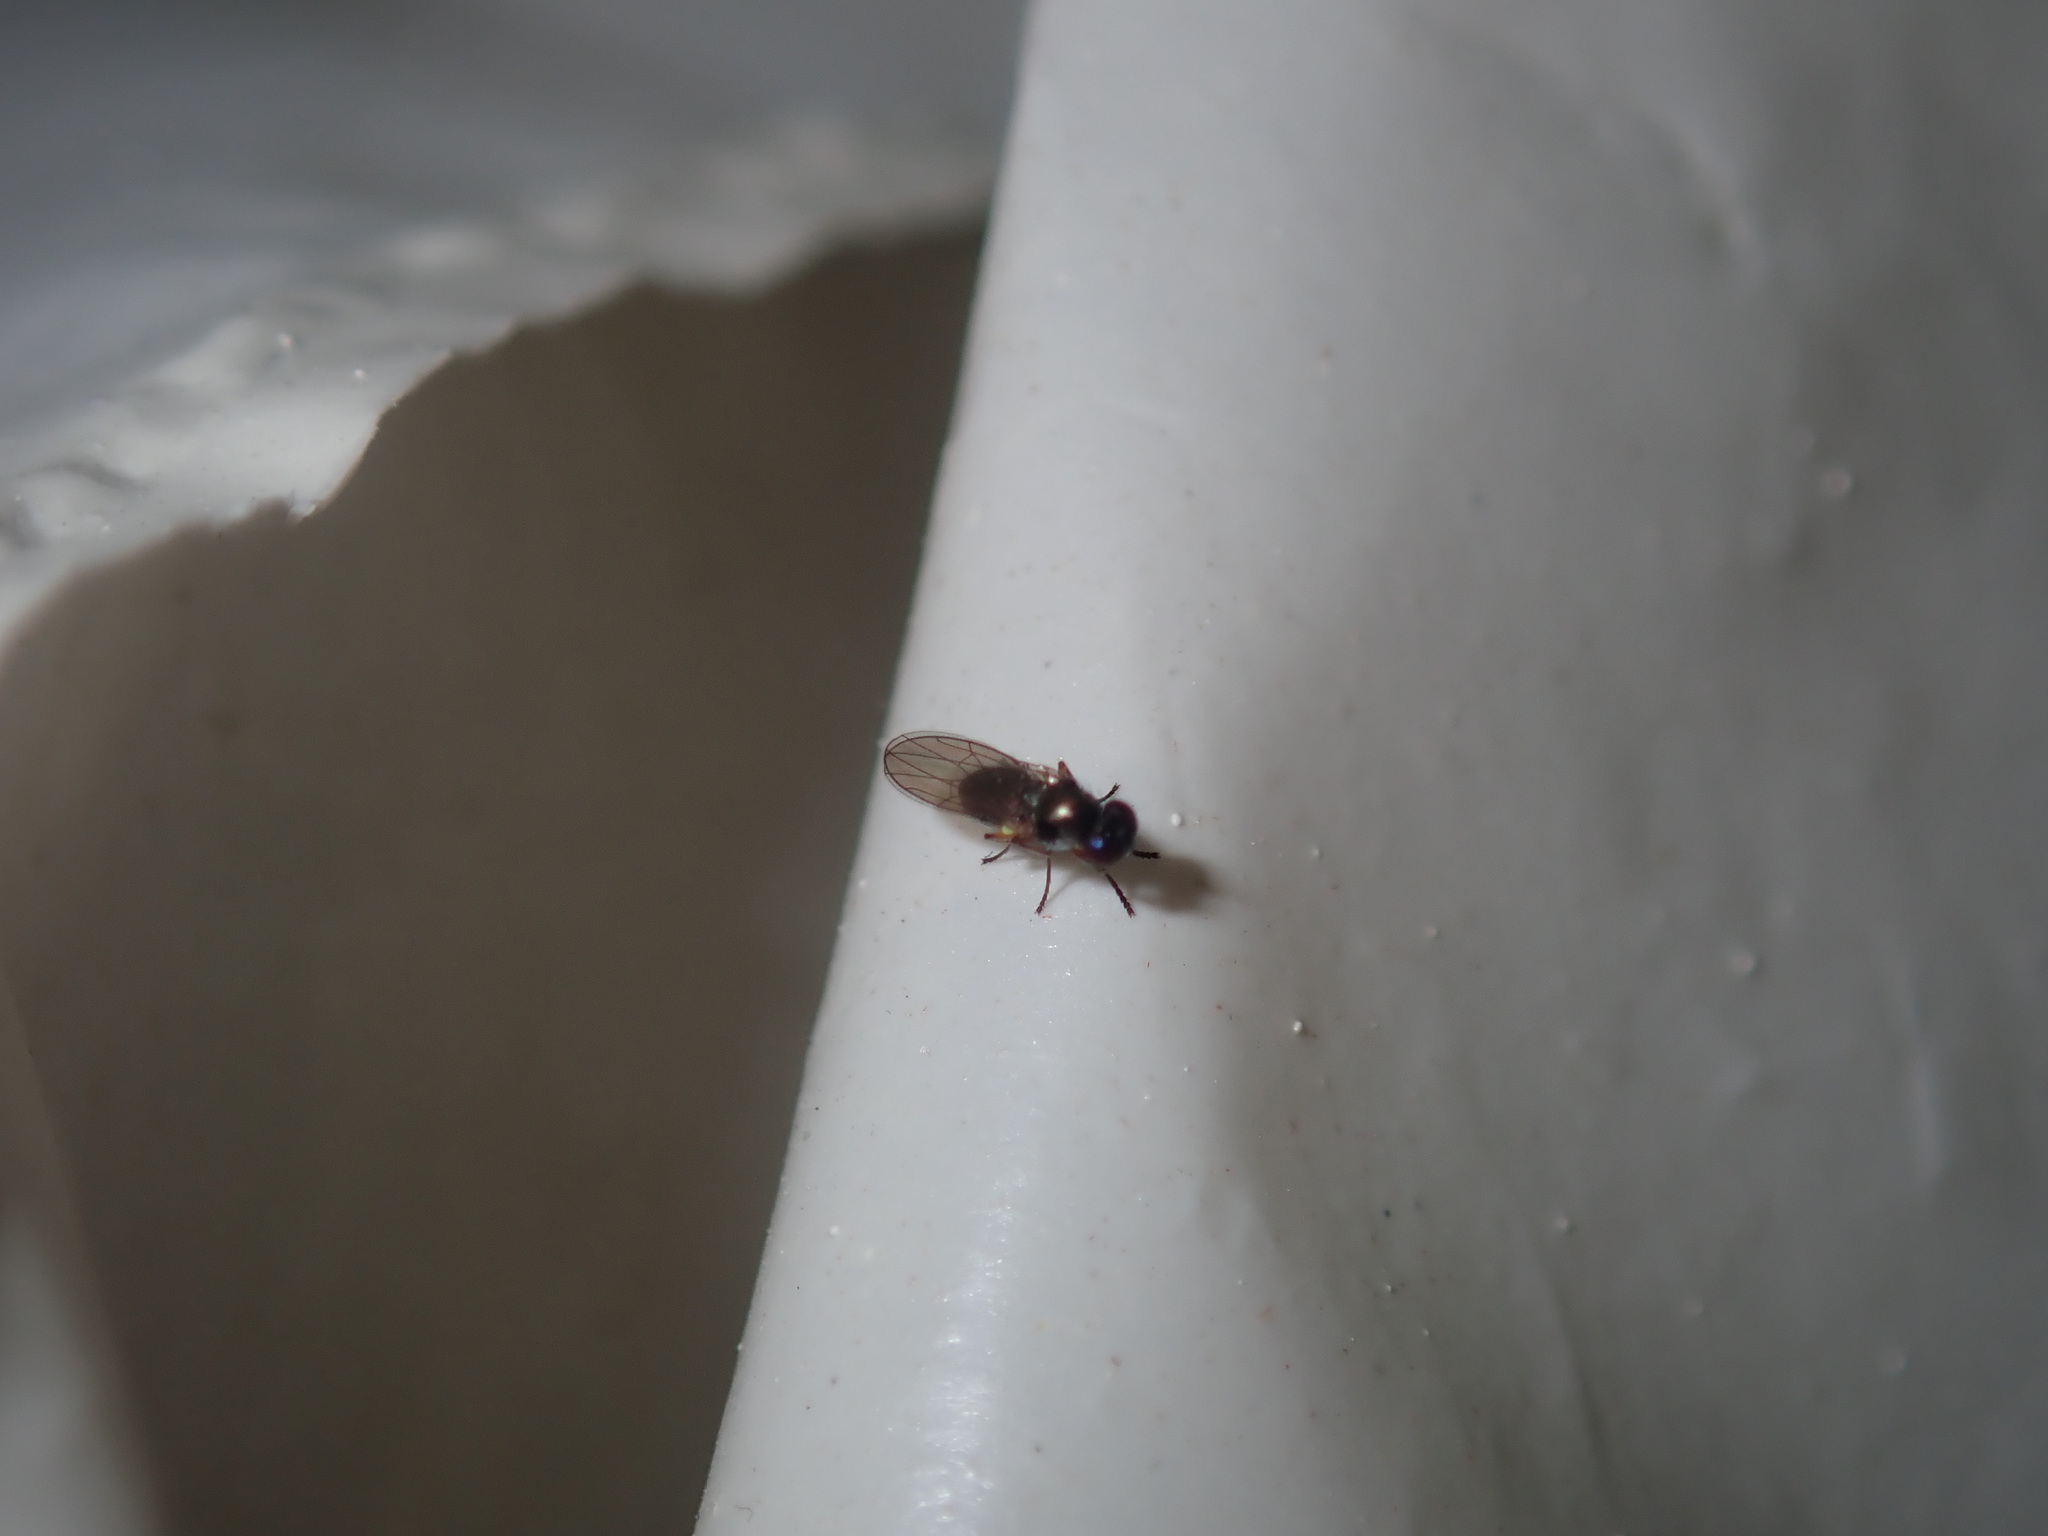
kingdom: Animalia
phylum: Arthropoda
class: Insecta
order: Diptera
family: Ephydridae
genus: Hydrellia
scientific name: Hydrellia tritici
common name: Shore fly
